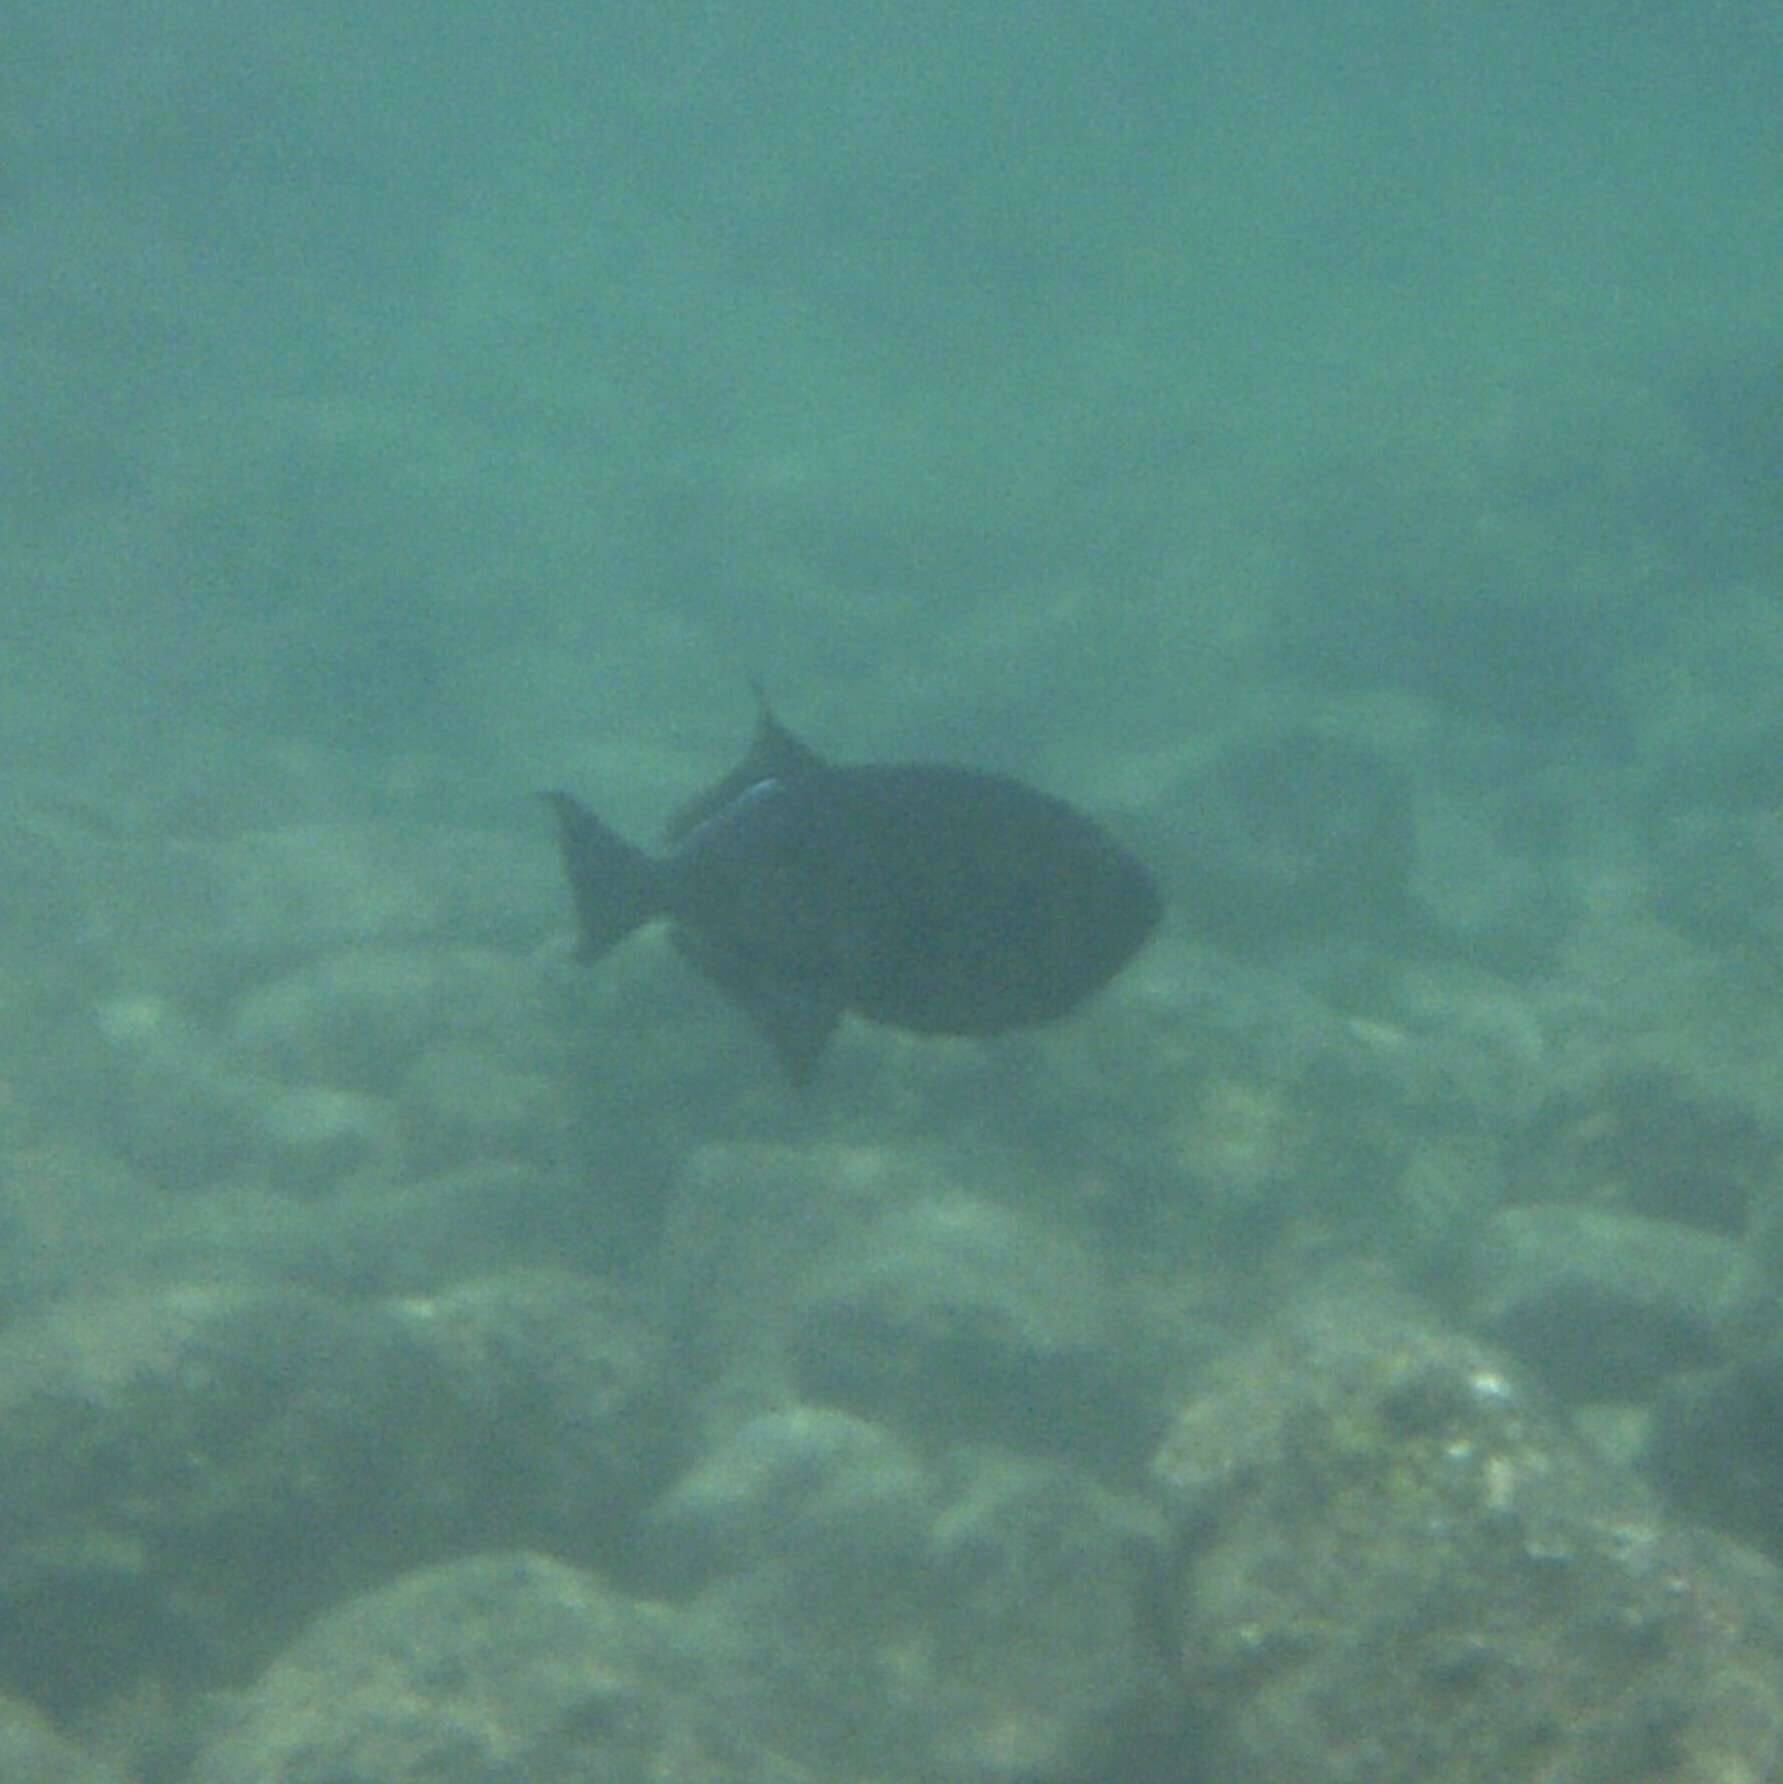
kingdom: Animalia
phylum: Chordata
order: Tetraodontiformes
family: Balistidae
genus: Melichthys
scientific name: Melichthys niger
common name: Black durgon
